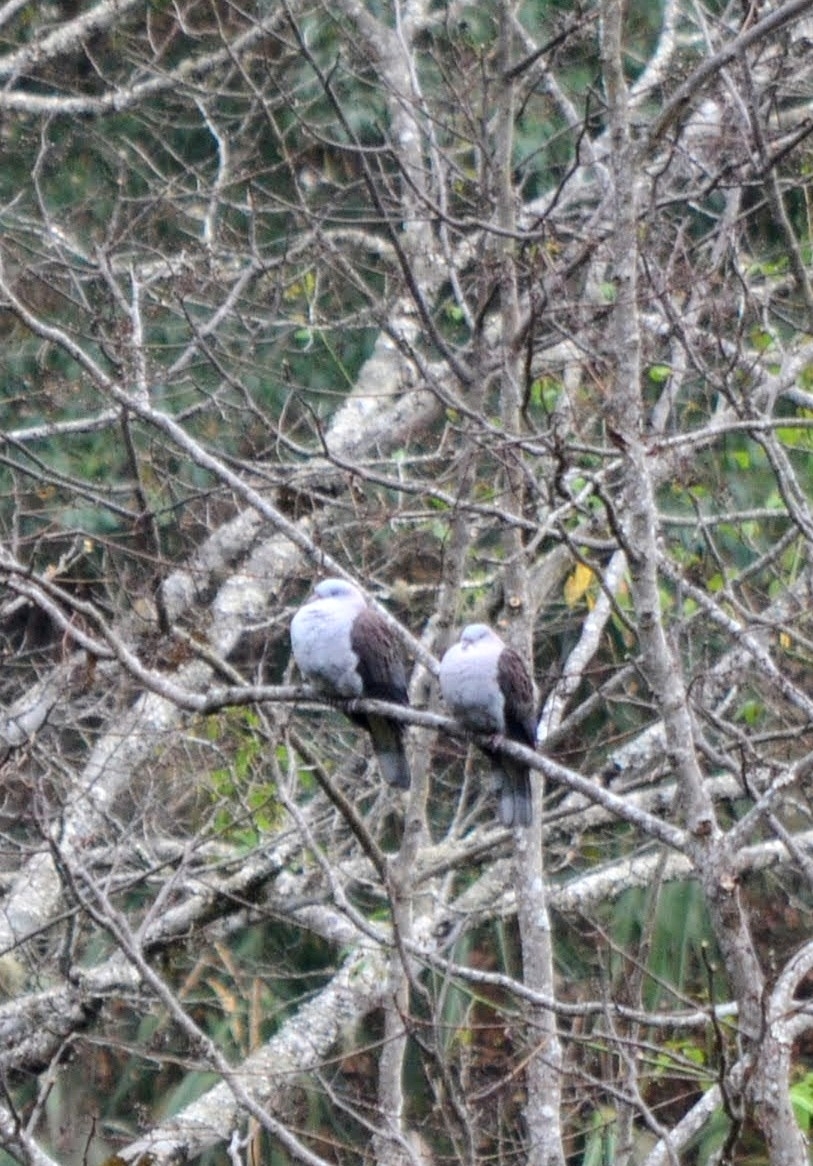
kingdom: Animalia
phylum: Chordata
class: Aves
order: Columbiformes
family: Columbidae
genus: Ducula
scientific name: Ducula badia
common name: Mountain imperial pigeon
